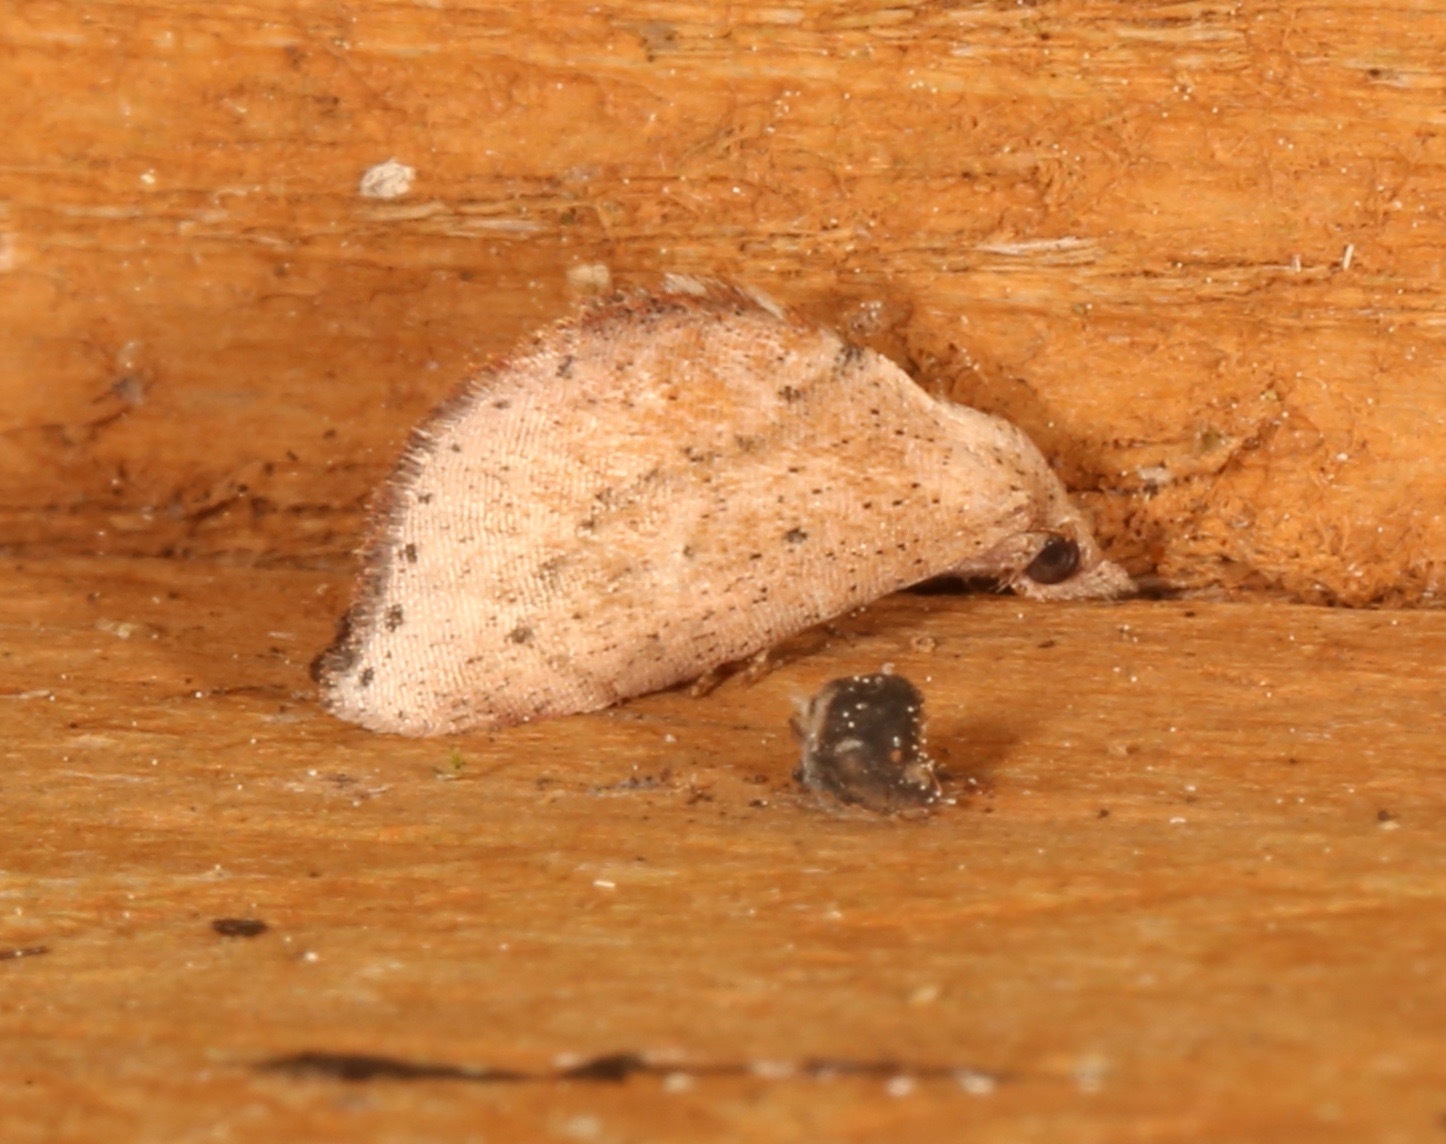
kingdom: Animalia
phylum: Arthropoda
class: Insecta
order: Lepidoptera
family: Noctuidae
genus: Proroblemma
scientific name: Proroblemma testa
